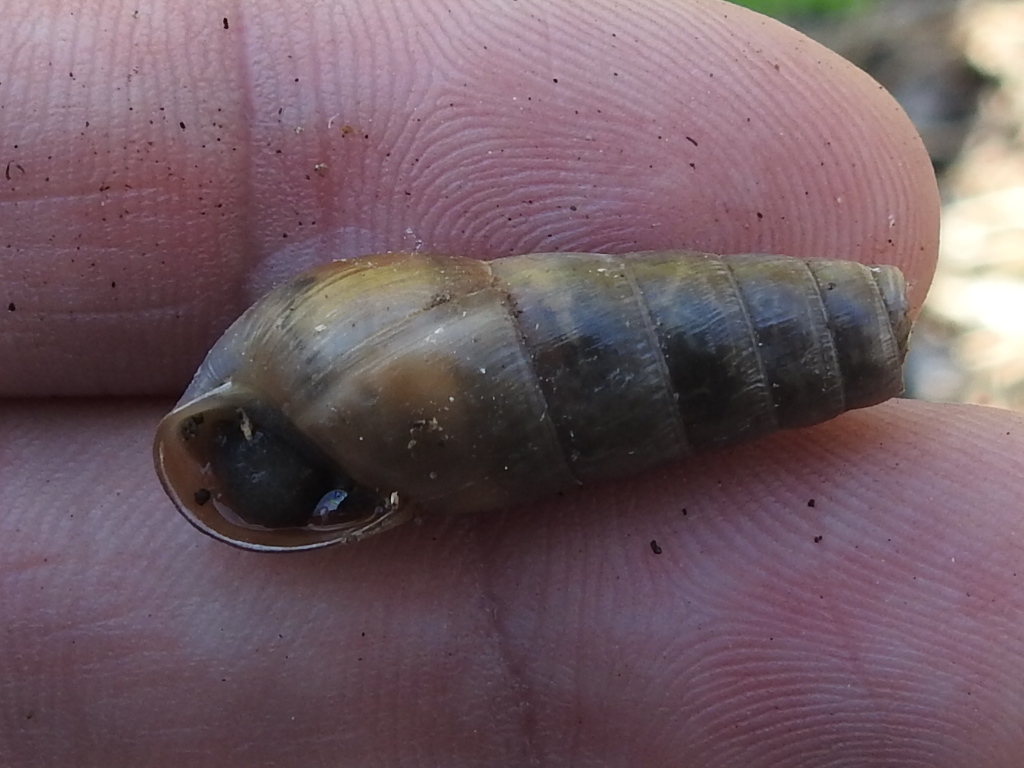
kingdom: Animalia
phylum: Mollusca
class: Gastropoda
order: Stylommatophora
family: Achatinidae
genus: Rumina
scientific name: Rumina decollata
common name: Decollate snail
